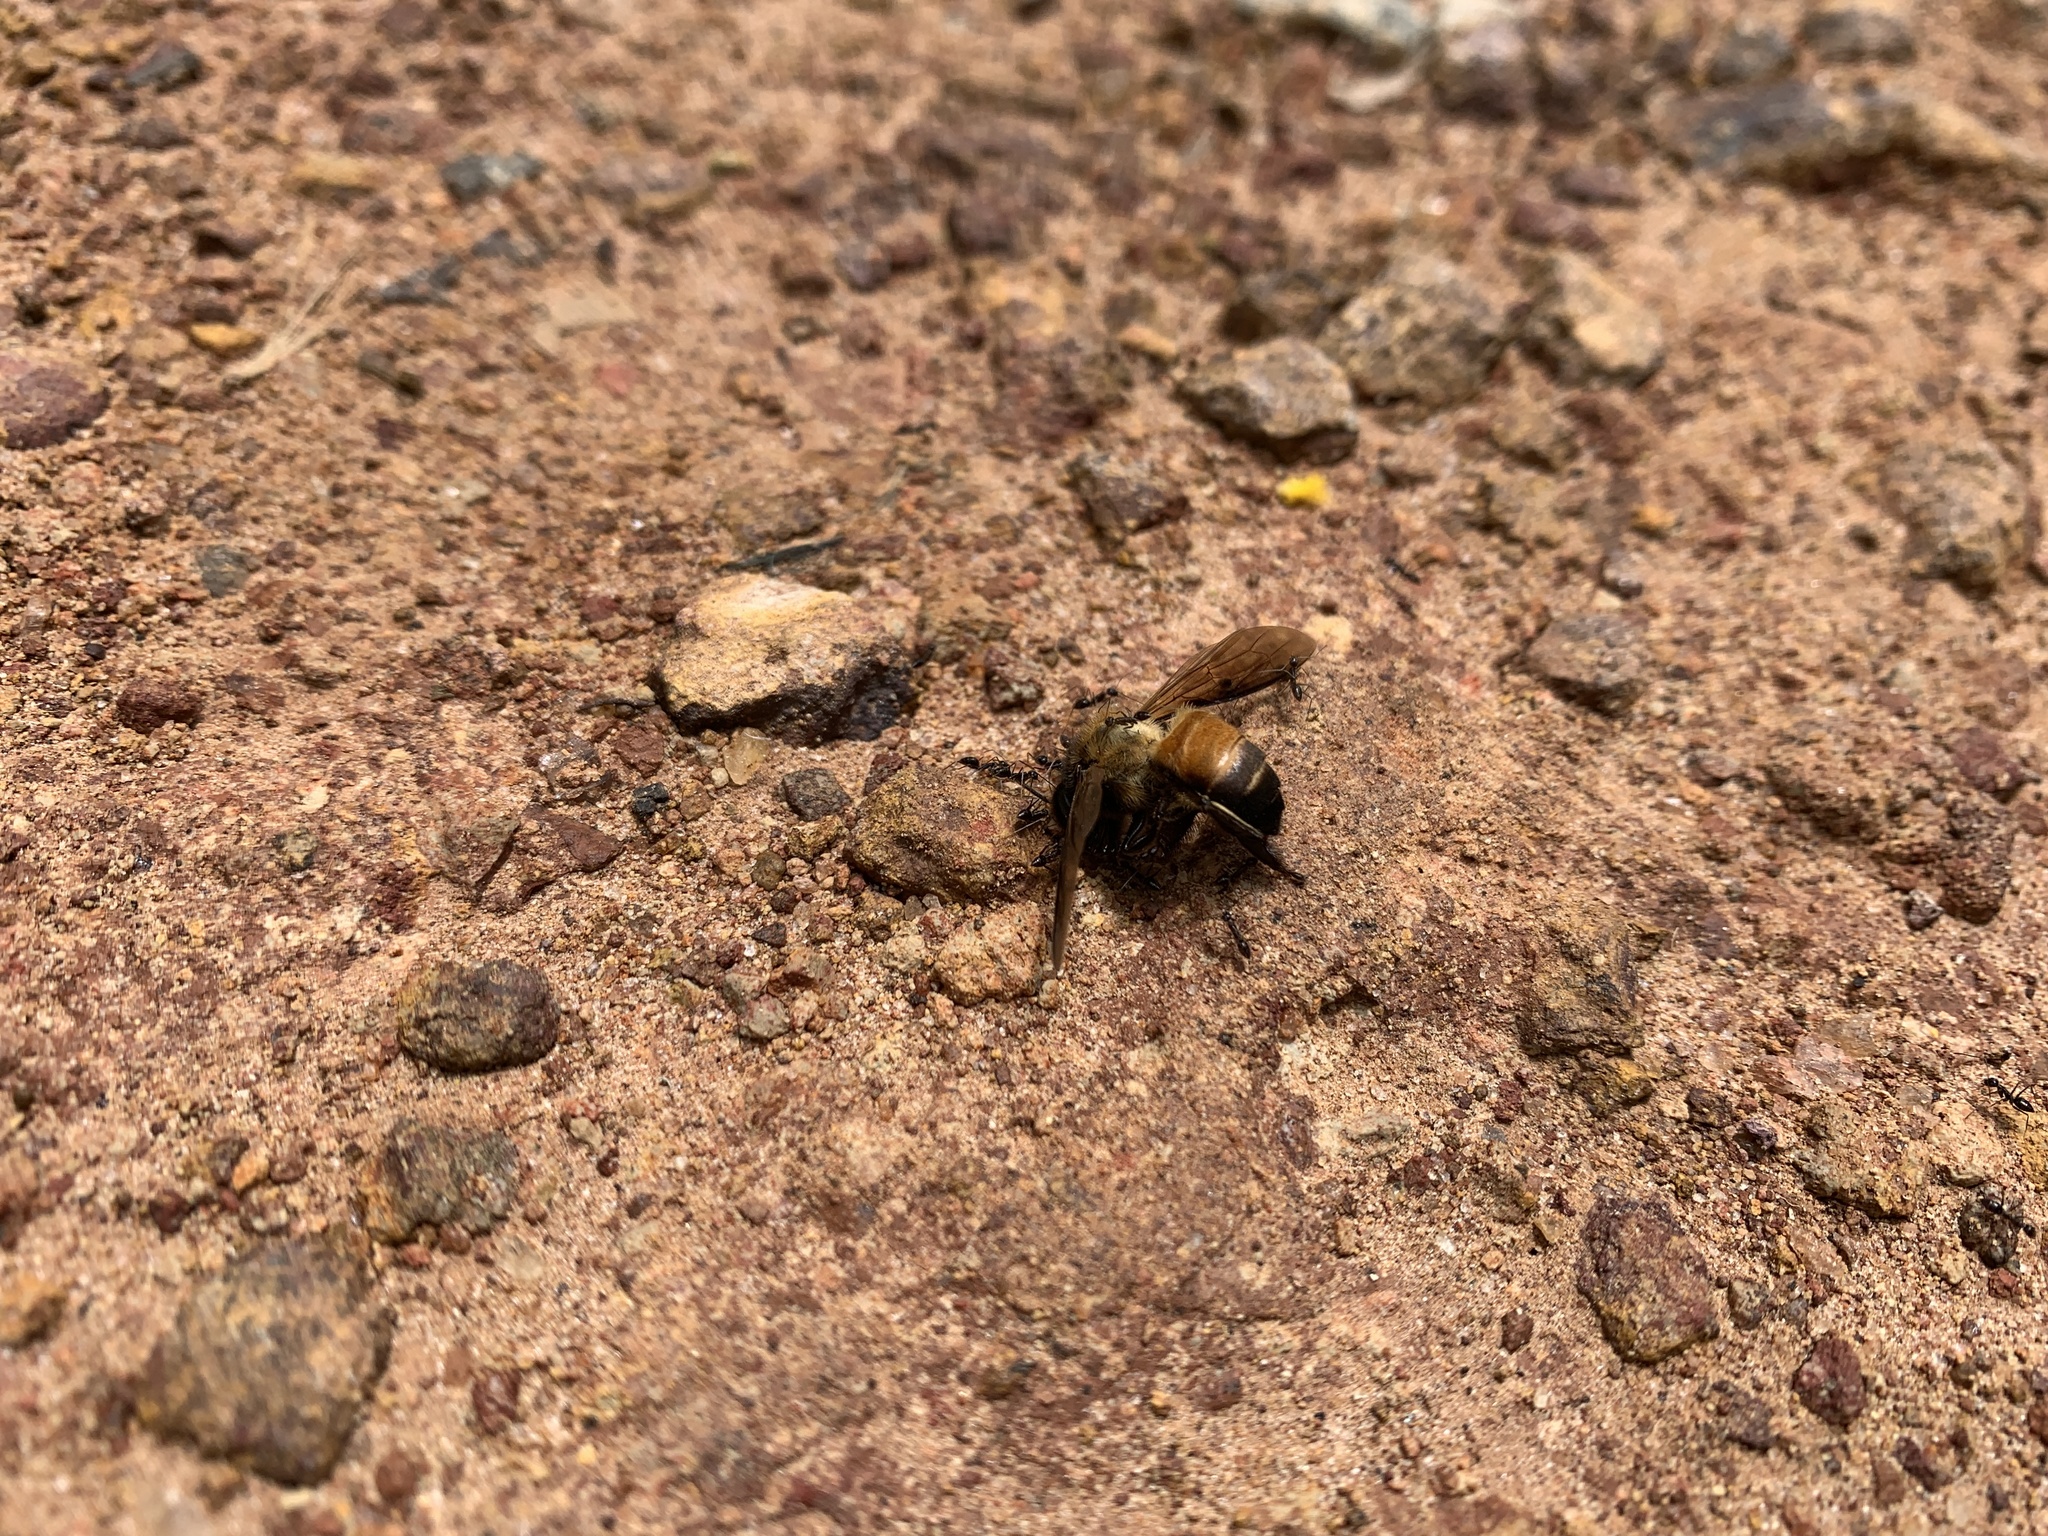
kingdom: Animalia
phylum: Arthropoda
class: Insecta
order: Hymenoptera
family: Apidae
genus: Apis
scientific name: Apis dorsata
